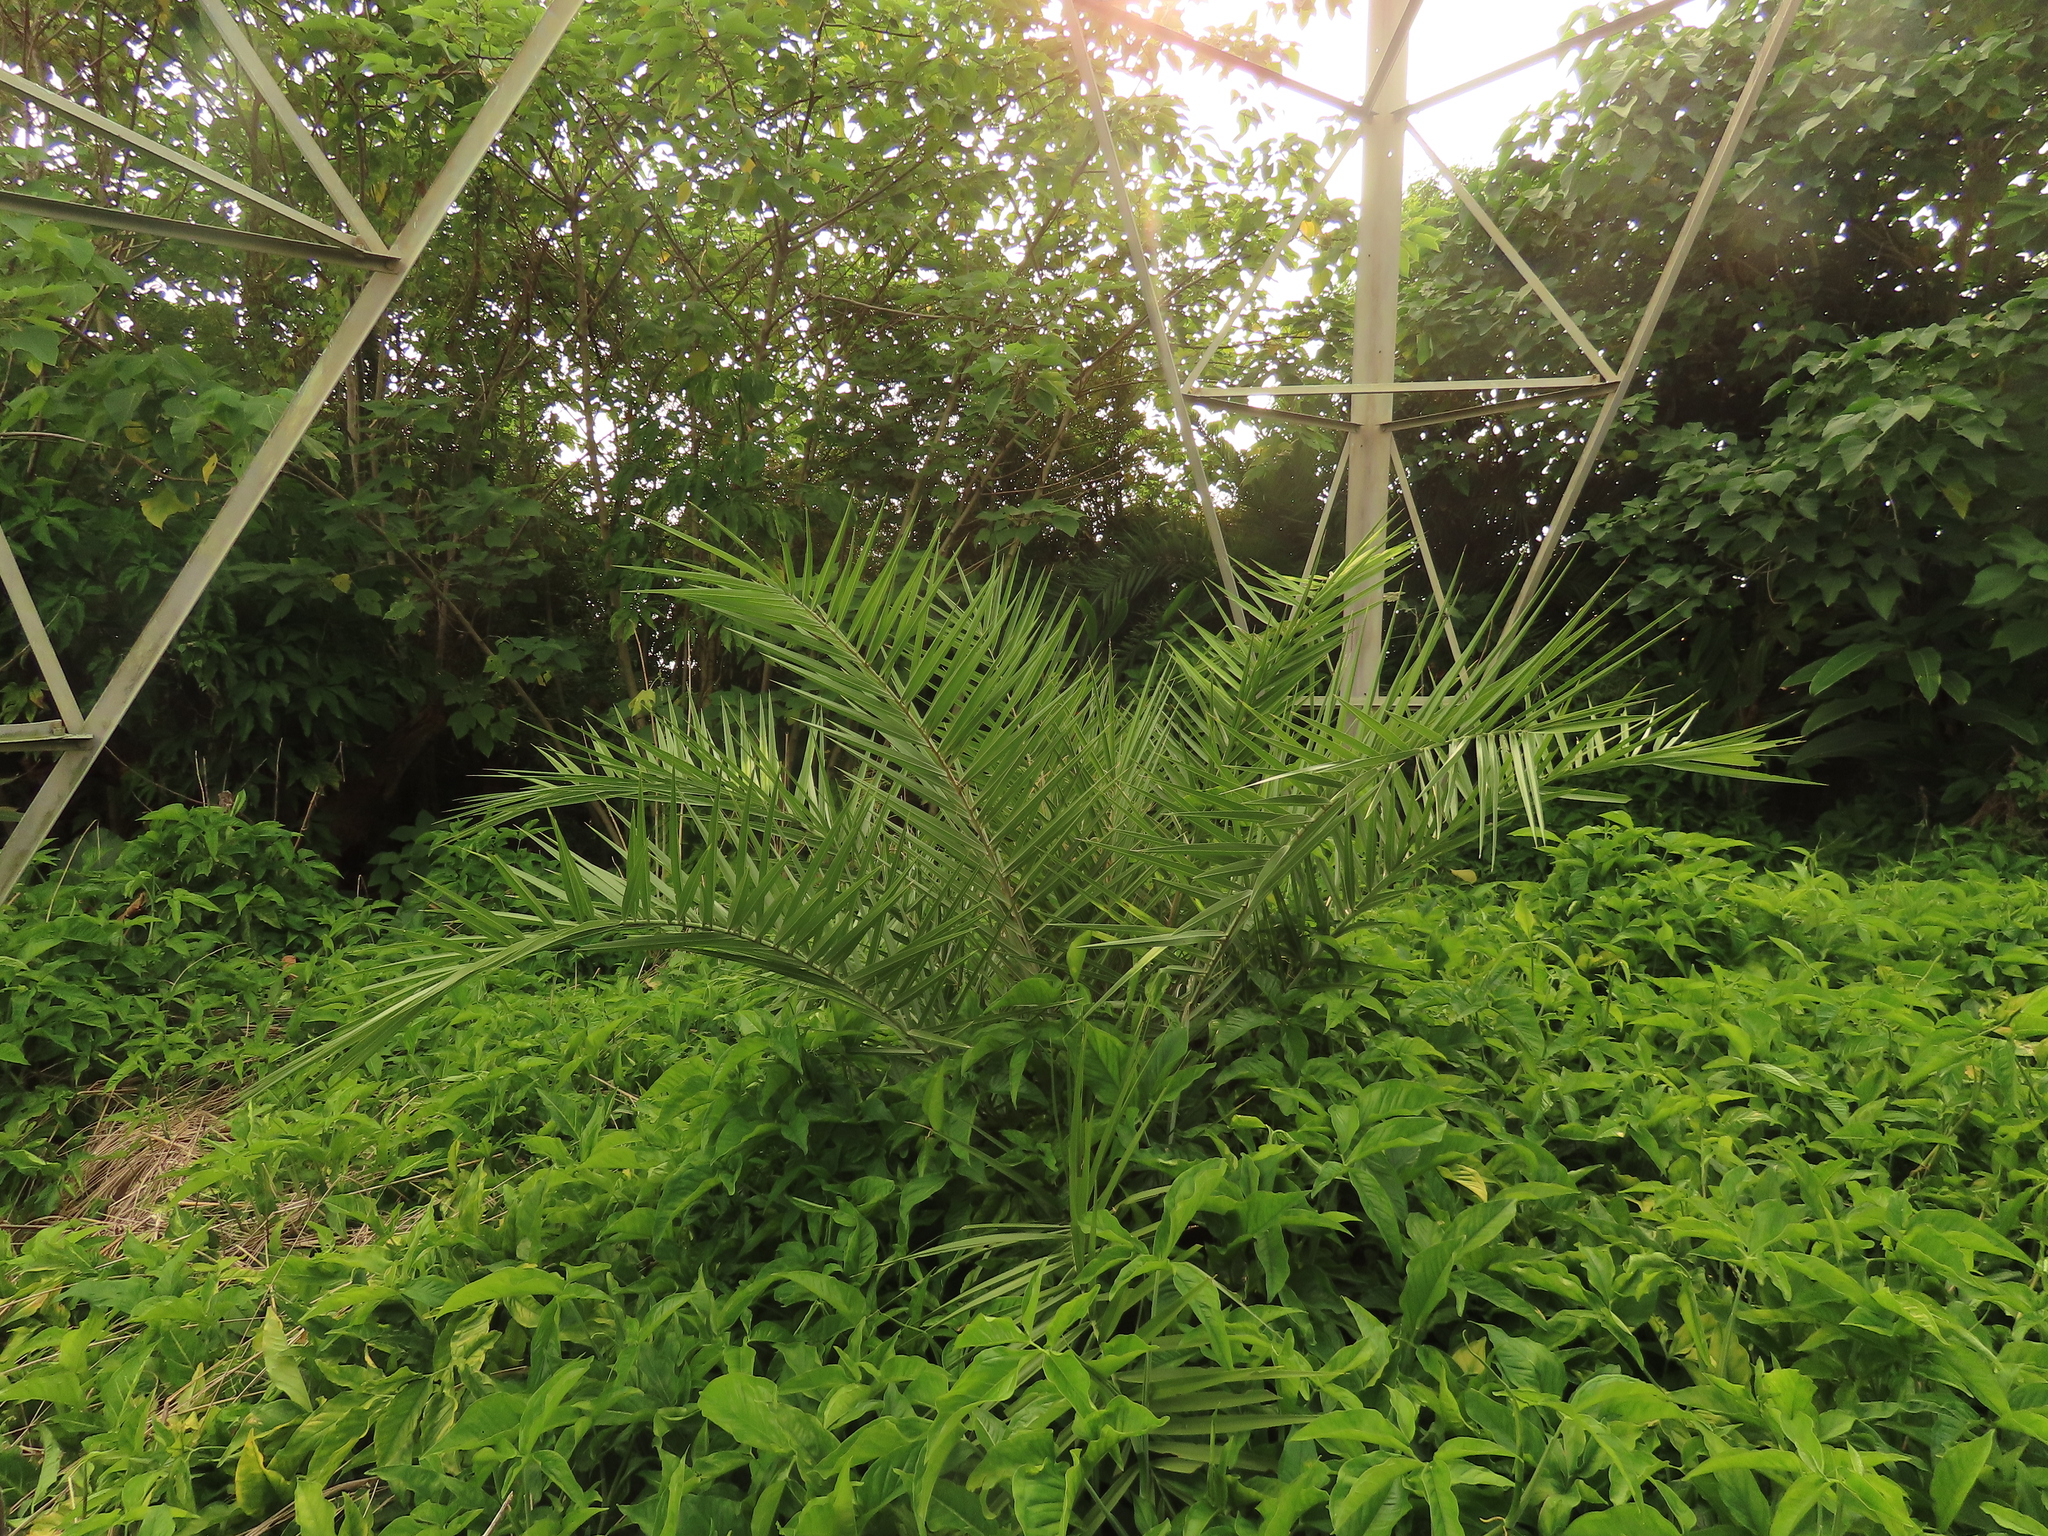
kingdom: Plantae
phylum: Tracheophyta
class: Liliopsida
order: Arecales
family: Arecaceae
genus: Phoenix
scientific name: Phoenix loureiroi
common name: Loureiro's palm
